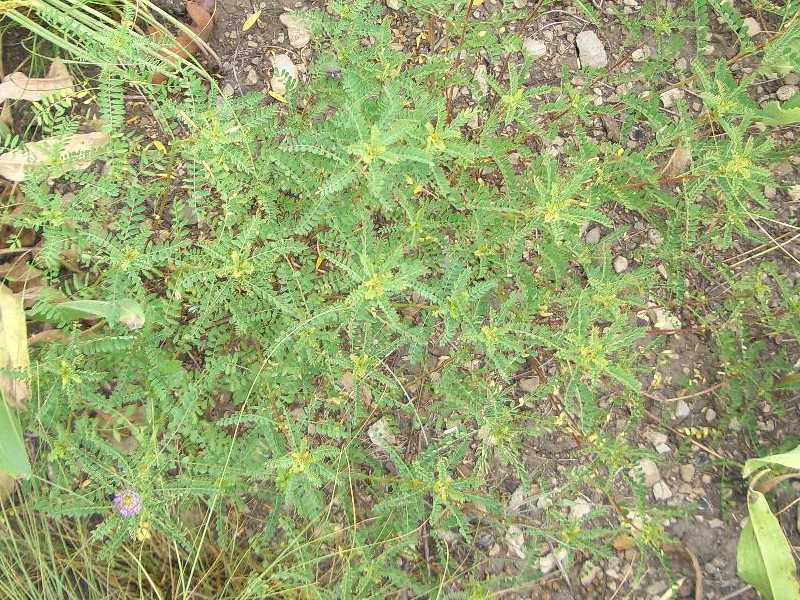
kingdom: Plantae
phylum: Tracheophyta
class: Magnoliopsida
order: Fabales
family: Fabaceae
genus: Dalea
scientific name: Dalea foliosa
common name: Leafy prairie-clover
